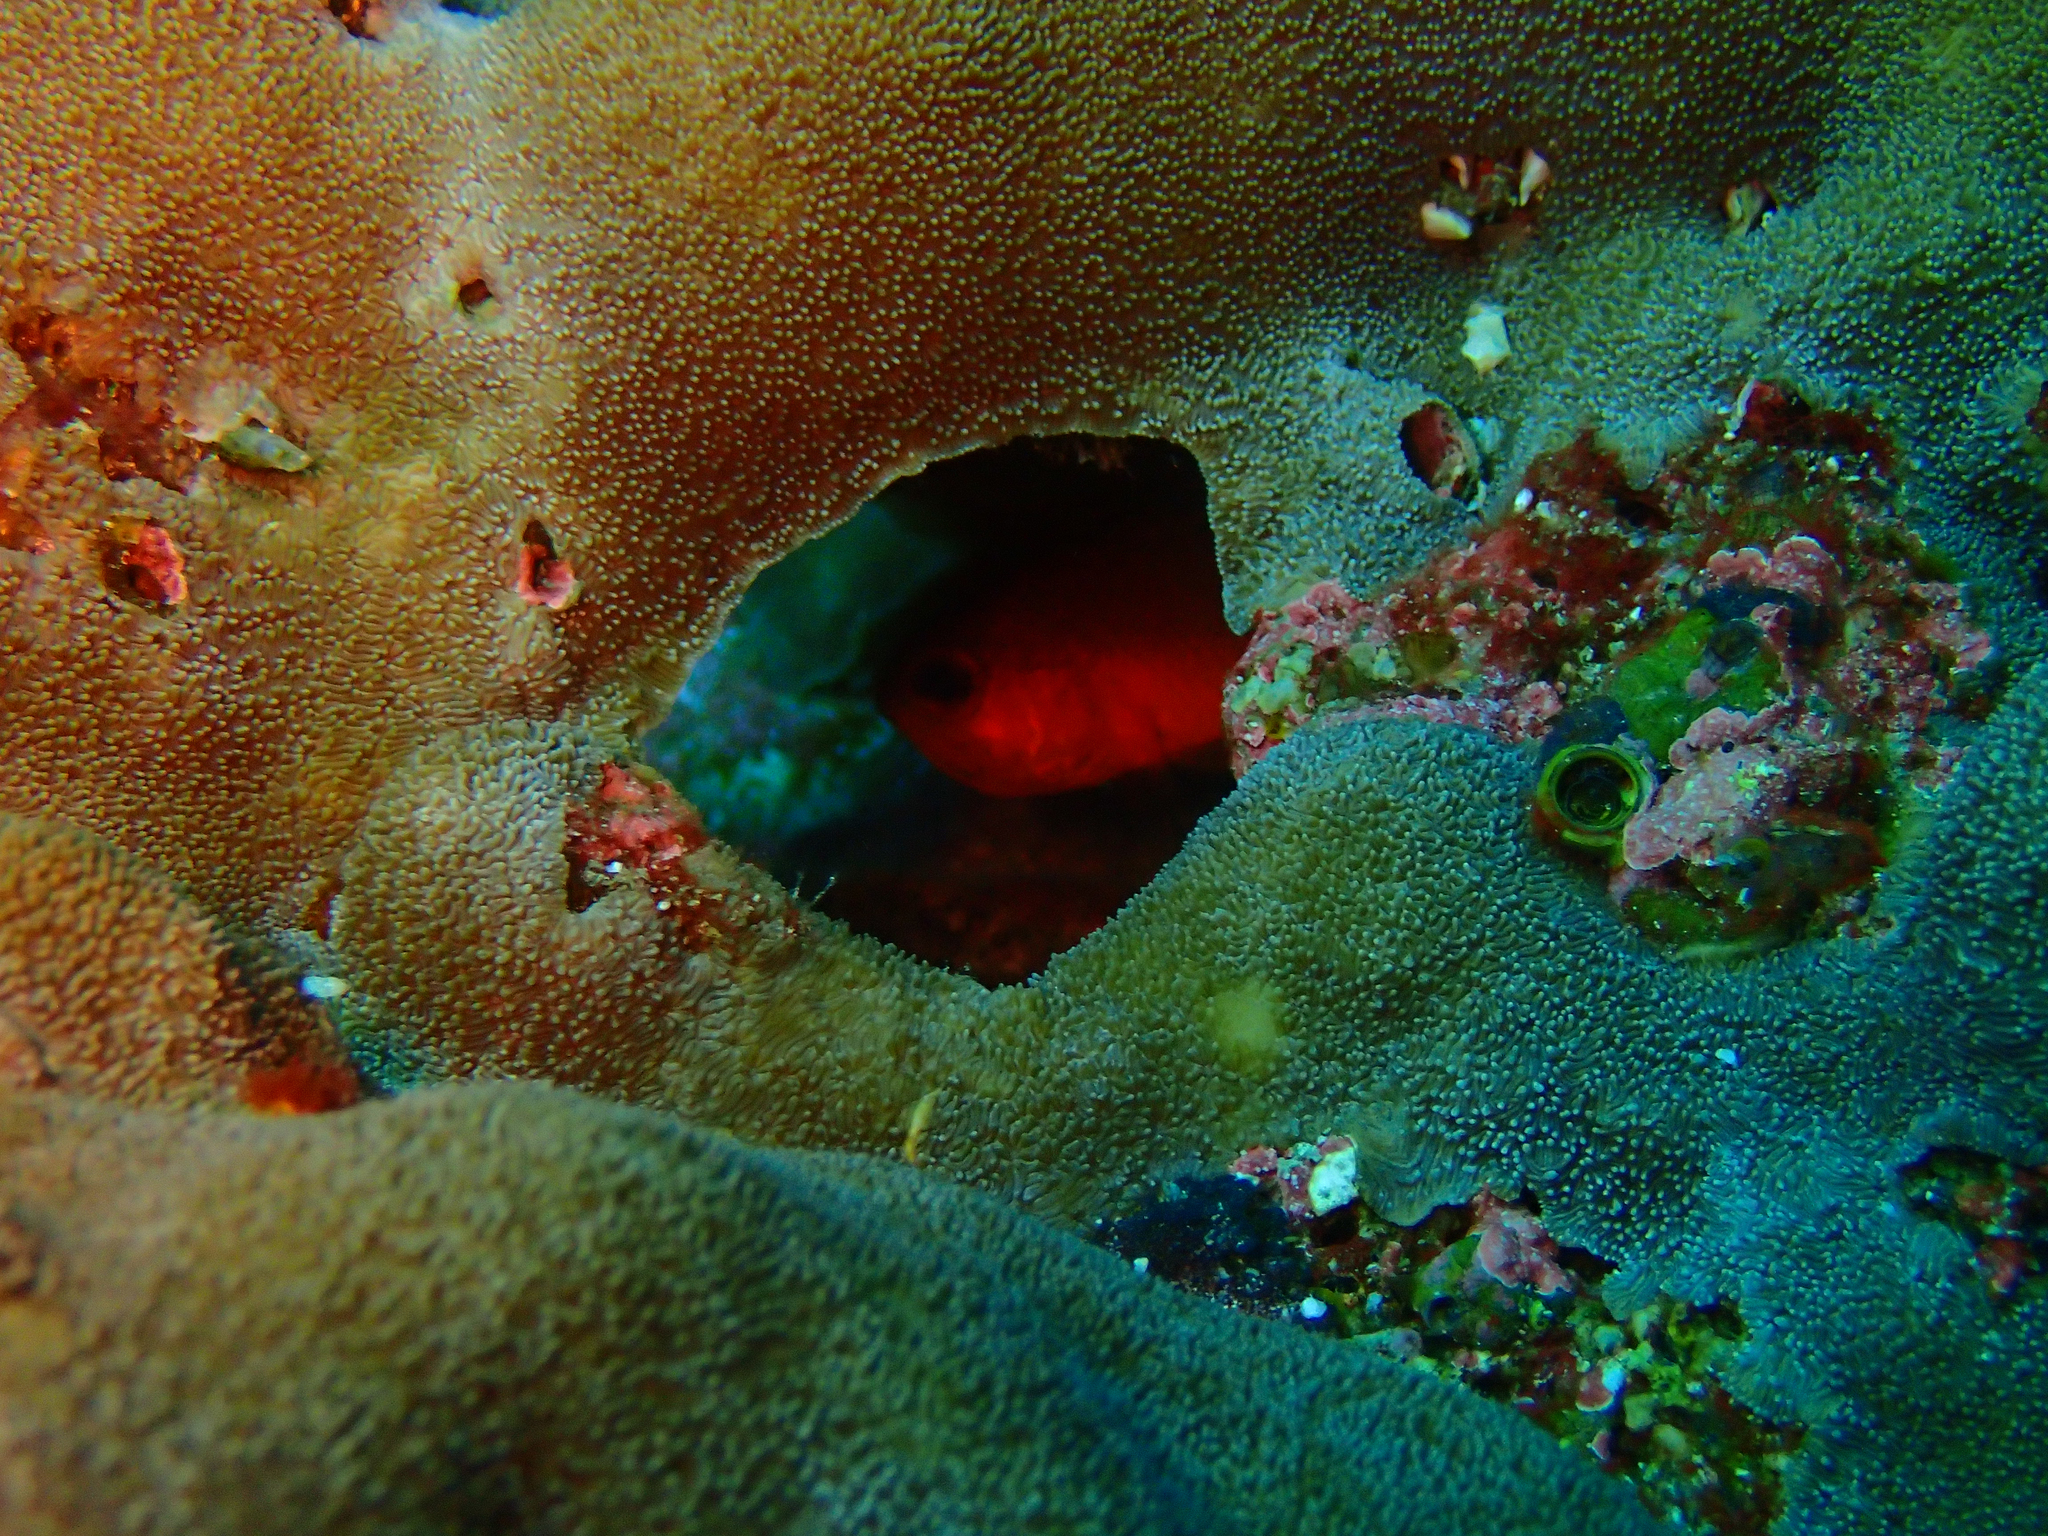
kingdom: Animalia
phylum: Chordata
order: Beryciformes
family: Holocentridae
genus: Myripristis
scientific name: Myripristis leiognathus
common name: Panamic soldierfish
